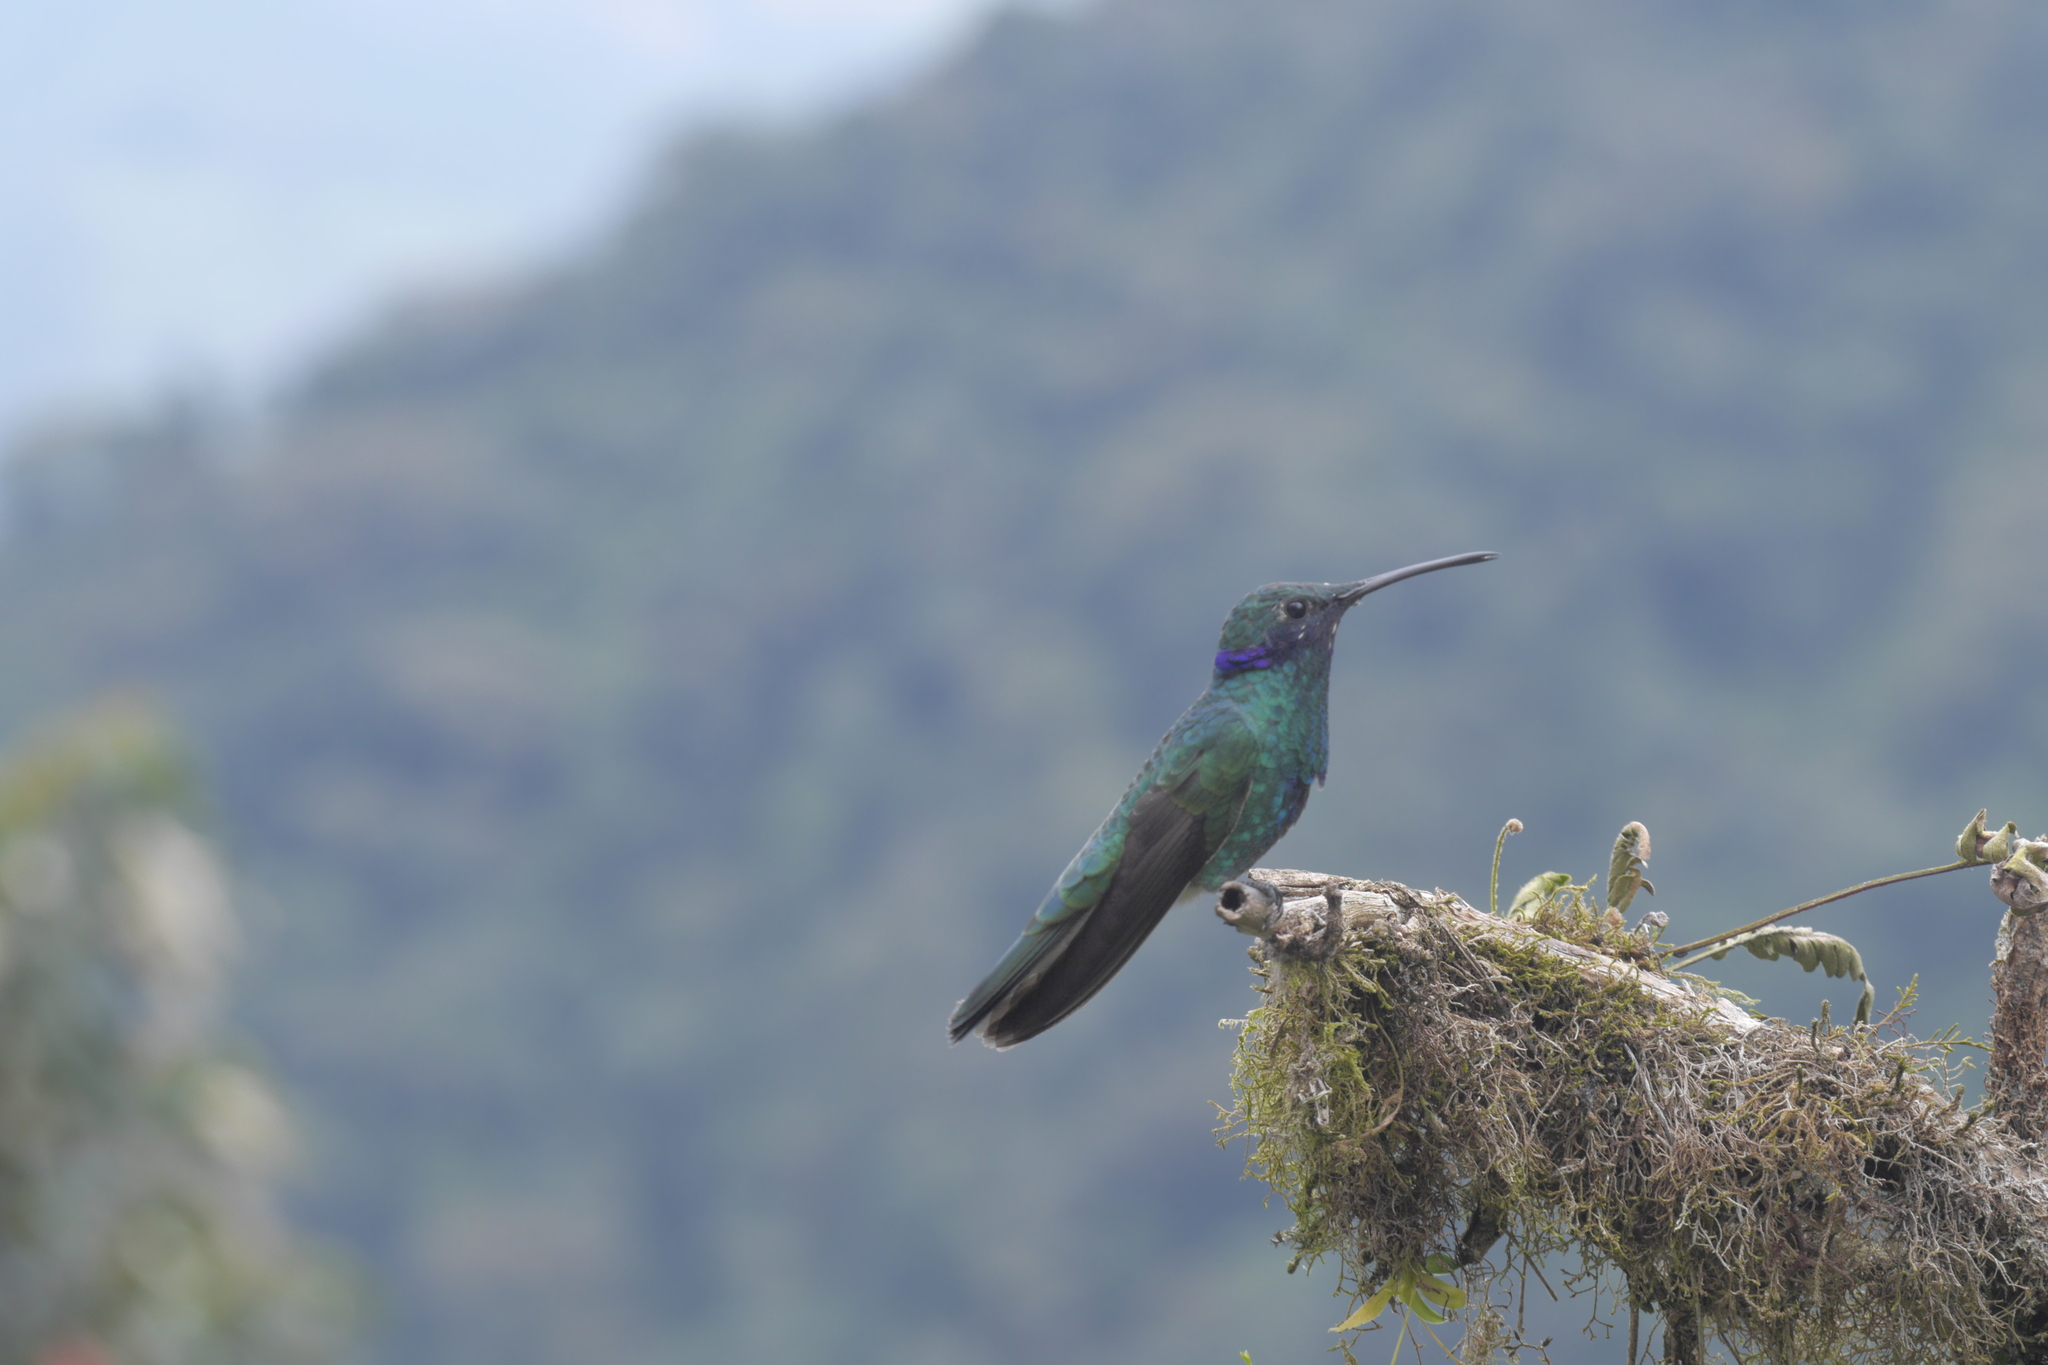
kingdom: Animalia
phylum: Chordata
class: Aves
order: Apodiformes
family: Trochilidae
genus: Colibri
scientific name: Colibri coruscans
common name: Sparkling violetear
